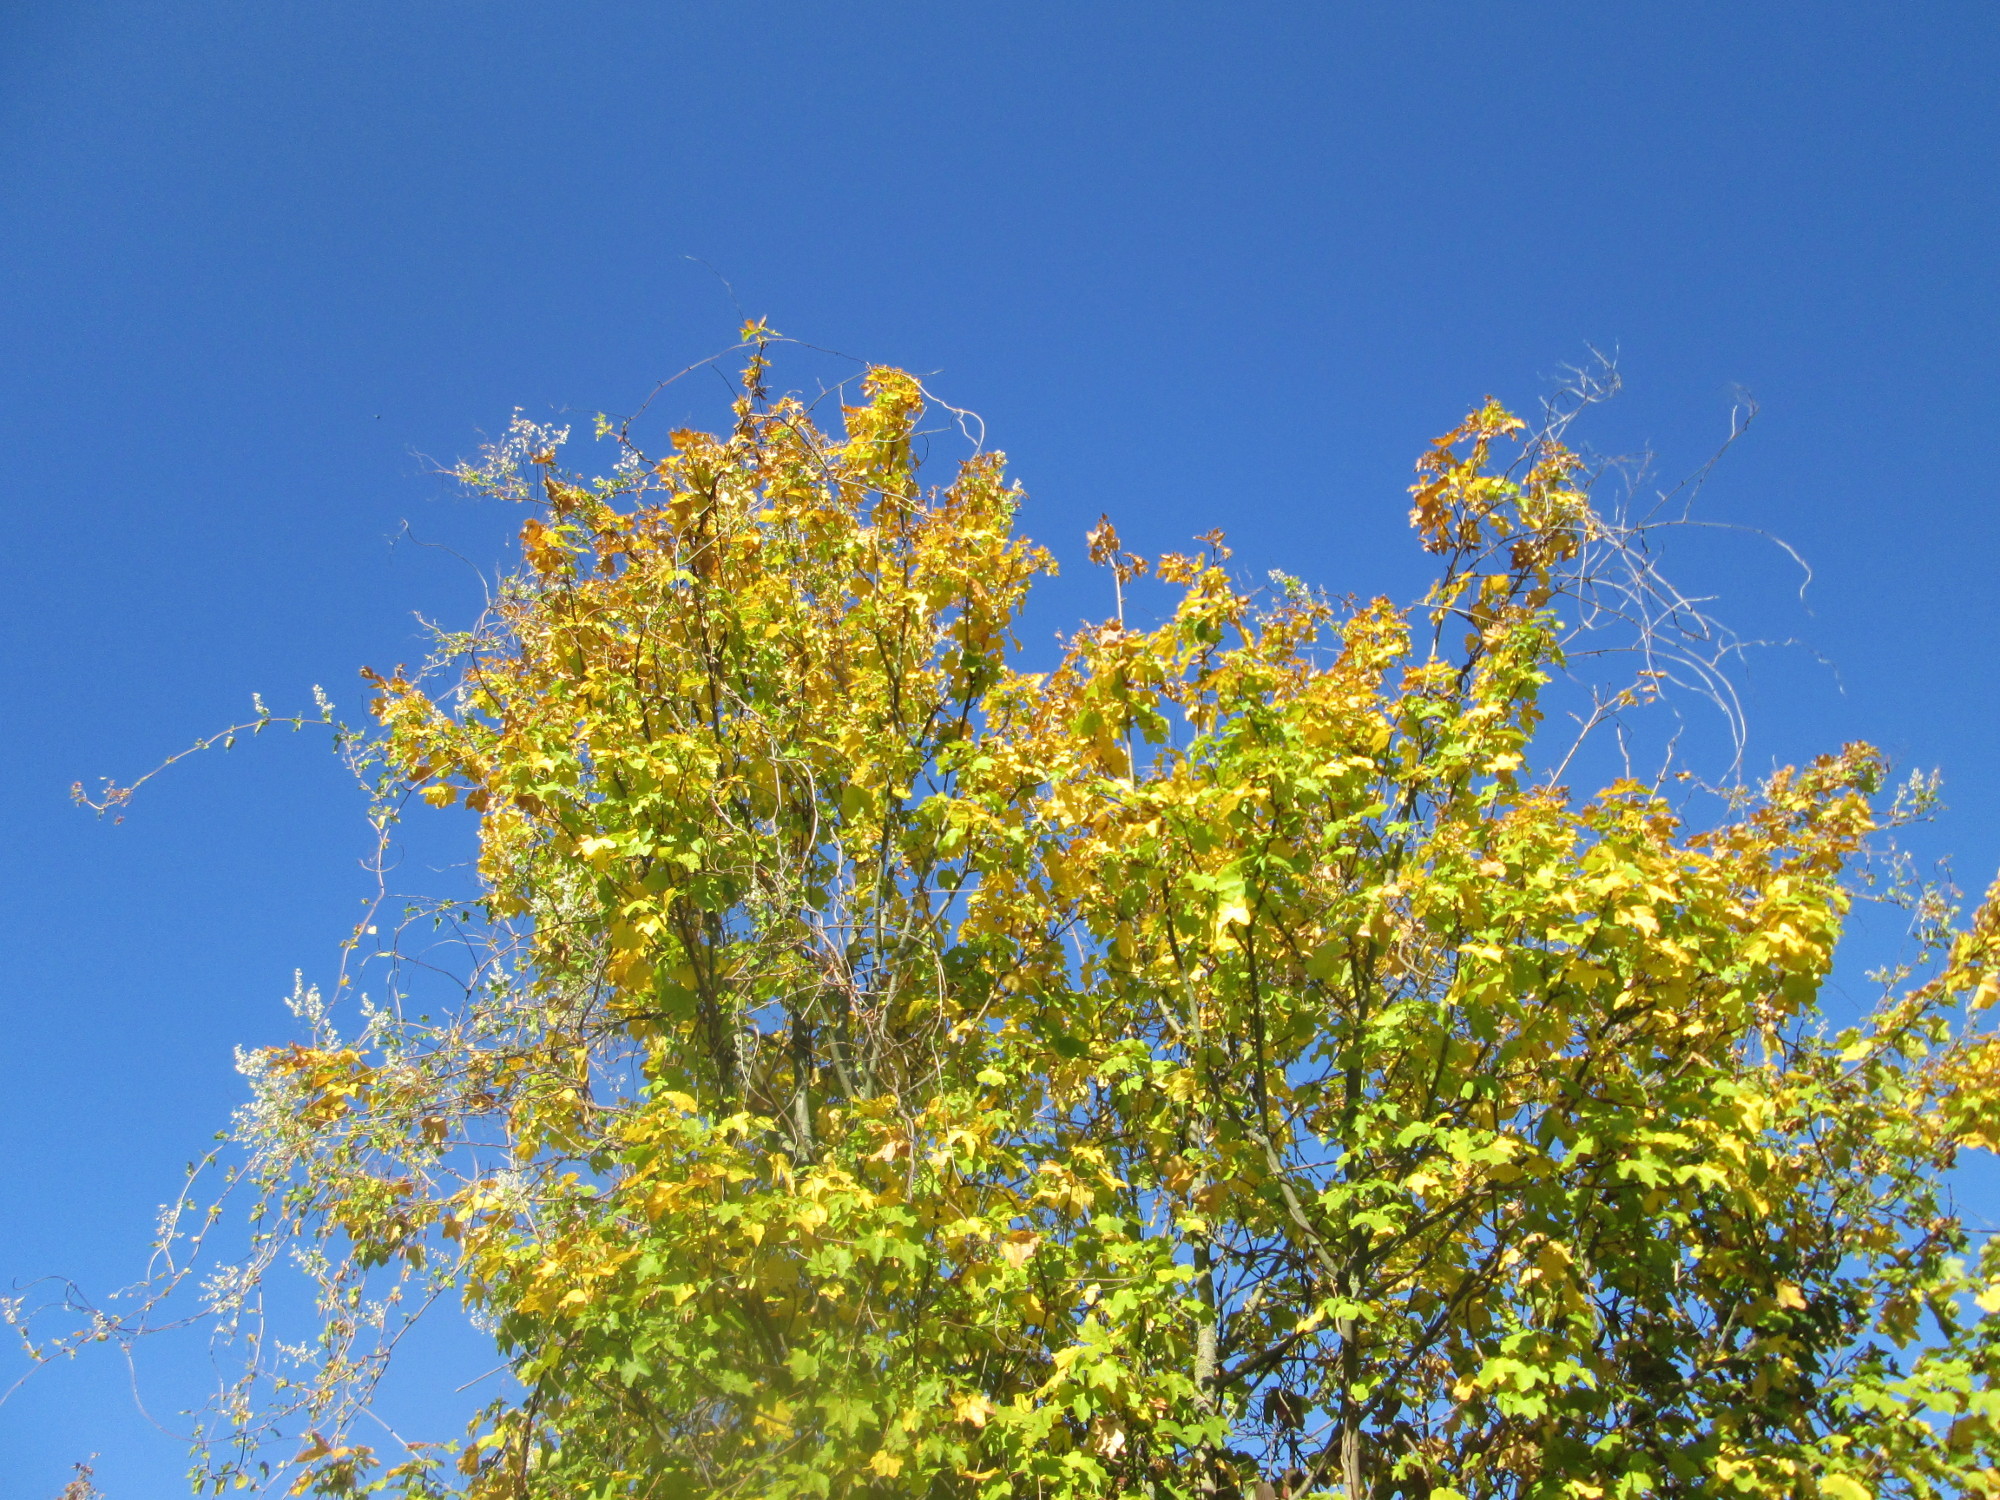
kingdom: Plantae
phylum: Tracheophyta
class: Magnoliopsida
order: Sapindales
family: Sapindaceae
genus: Acer
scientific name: Acer campestre
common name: Field maple
